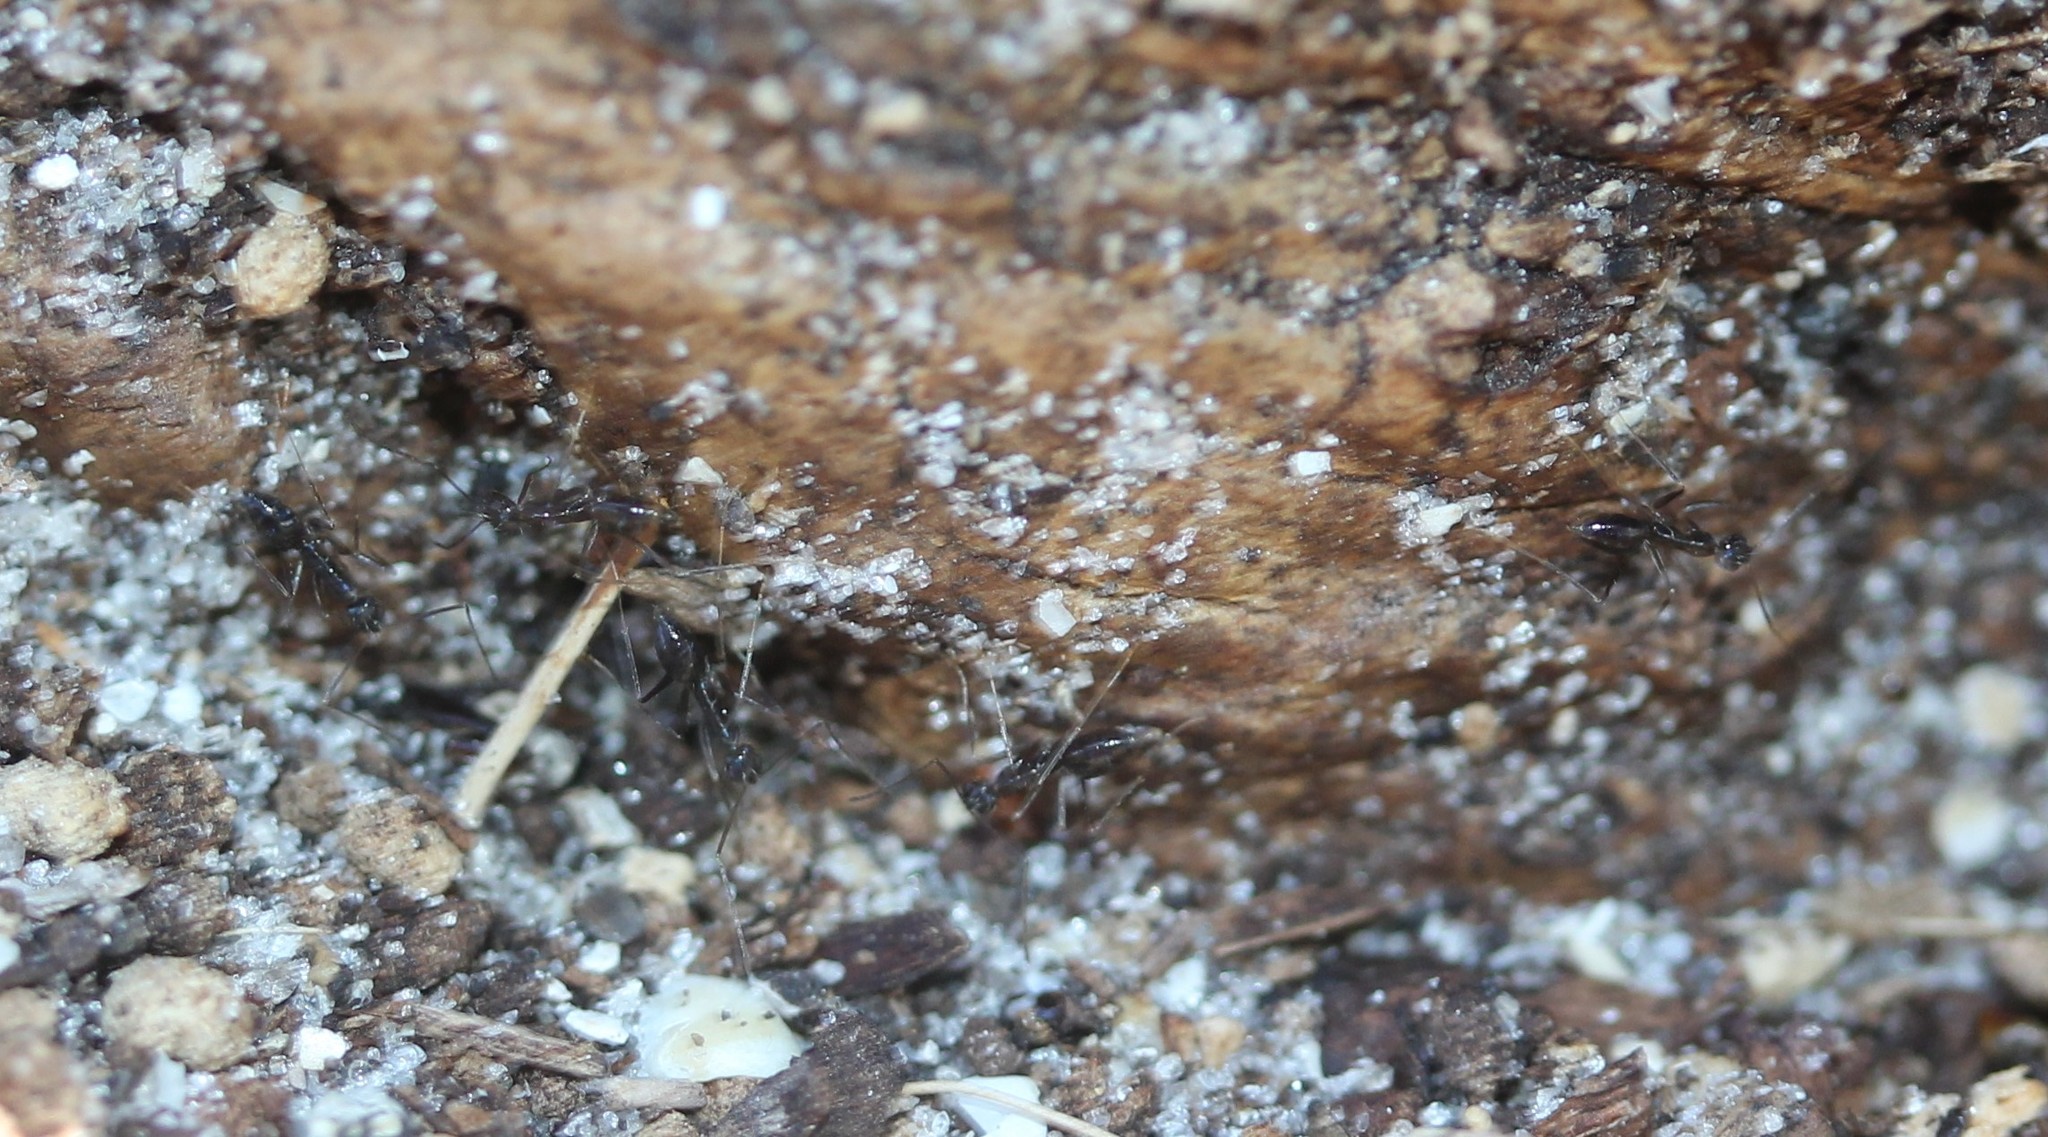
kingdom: Animalia
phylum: Arthropoda
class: Insecta
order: Hymenoptera
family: Formicidae
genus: Paratrechina
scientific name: Paratrechina longicornis
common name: Longhorned crazy ant
